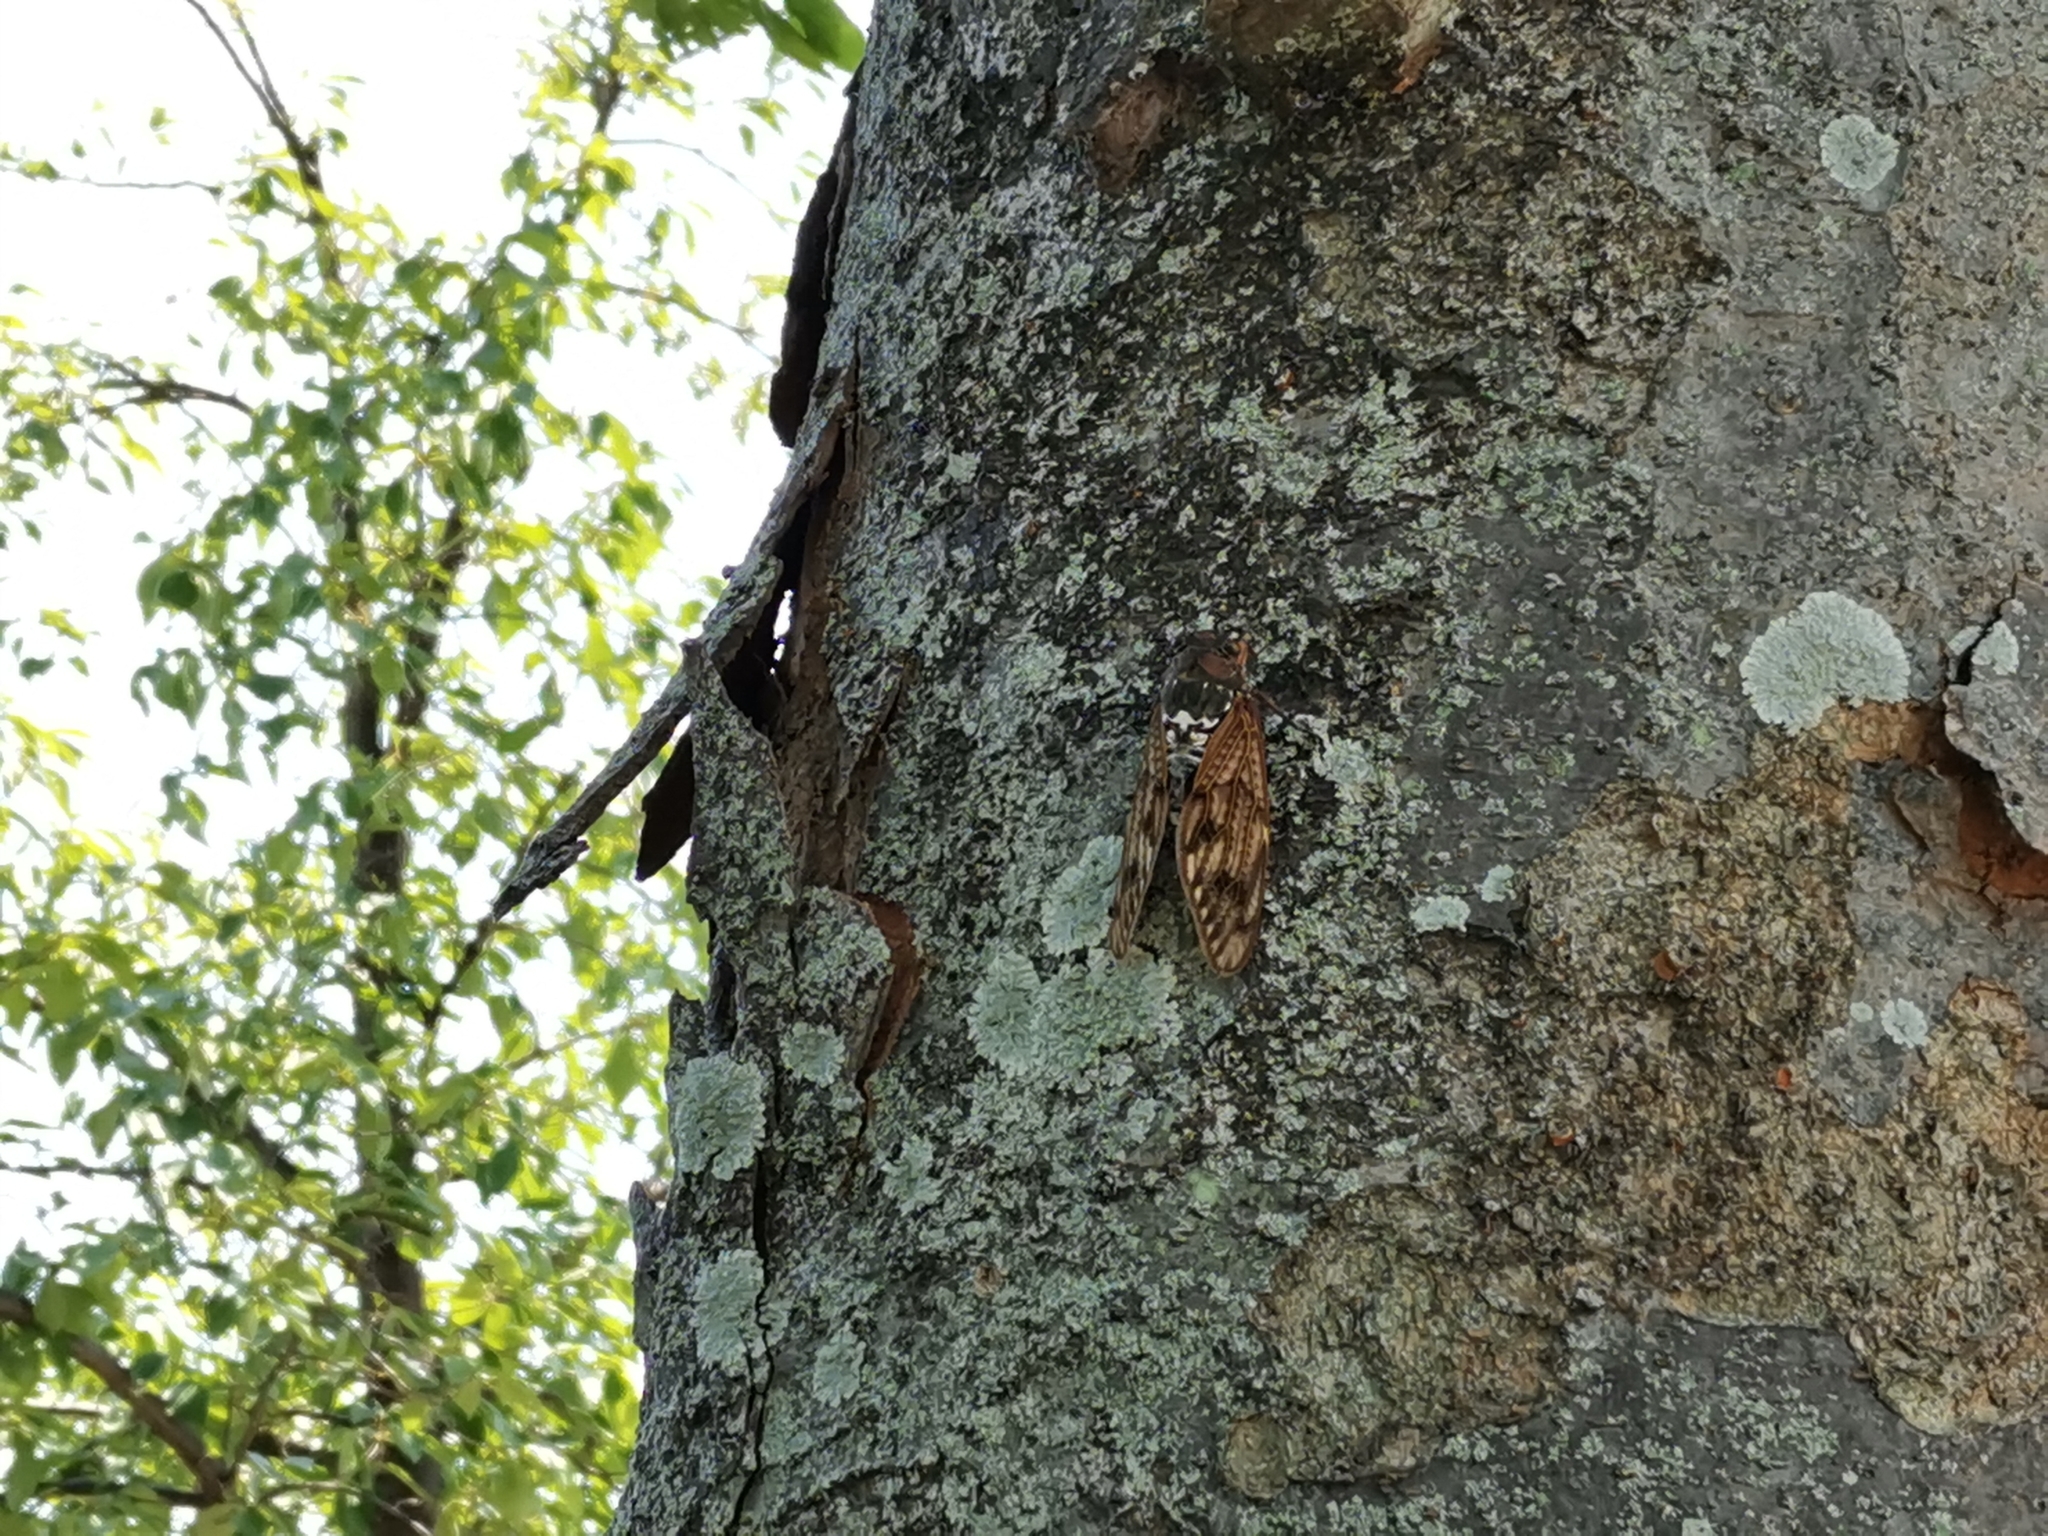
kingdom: Animalia
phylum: Arthropoda
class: Insecta
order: Hemiptera
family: Cicadidae
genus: Graptopsaltria
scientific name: Graptopsaltria nigrofuscata
